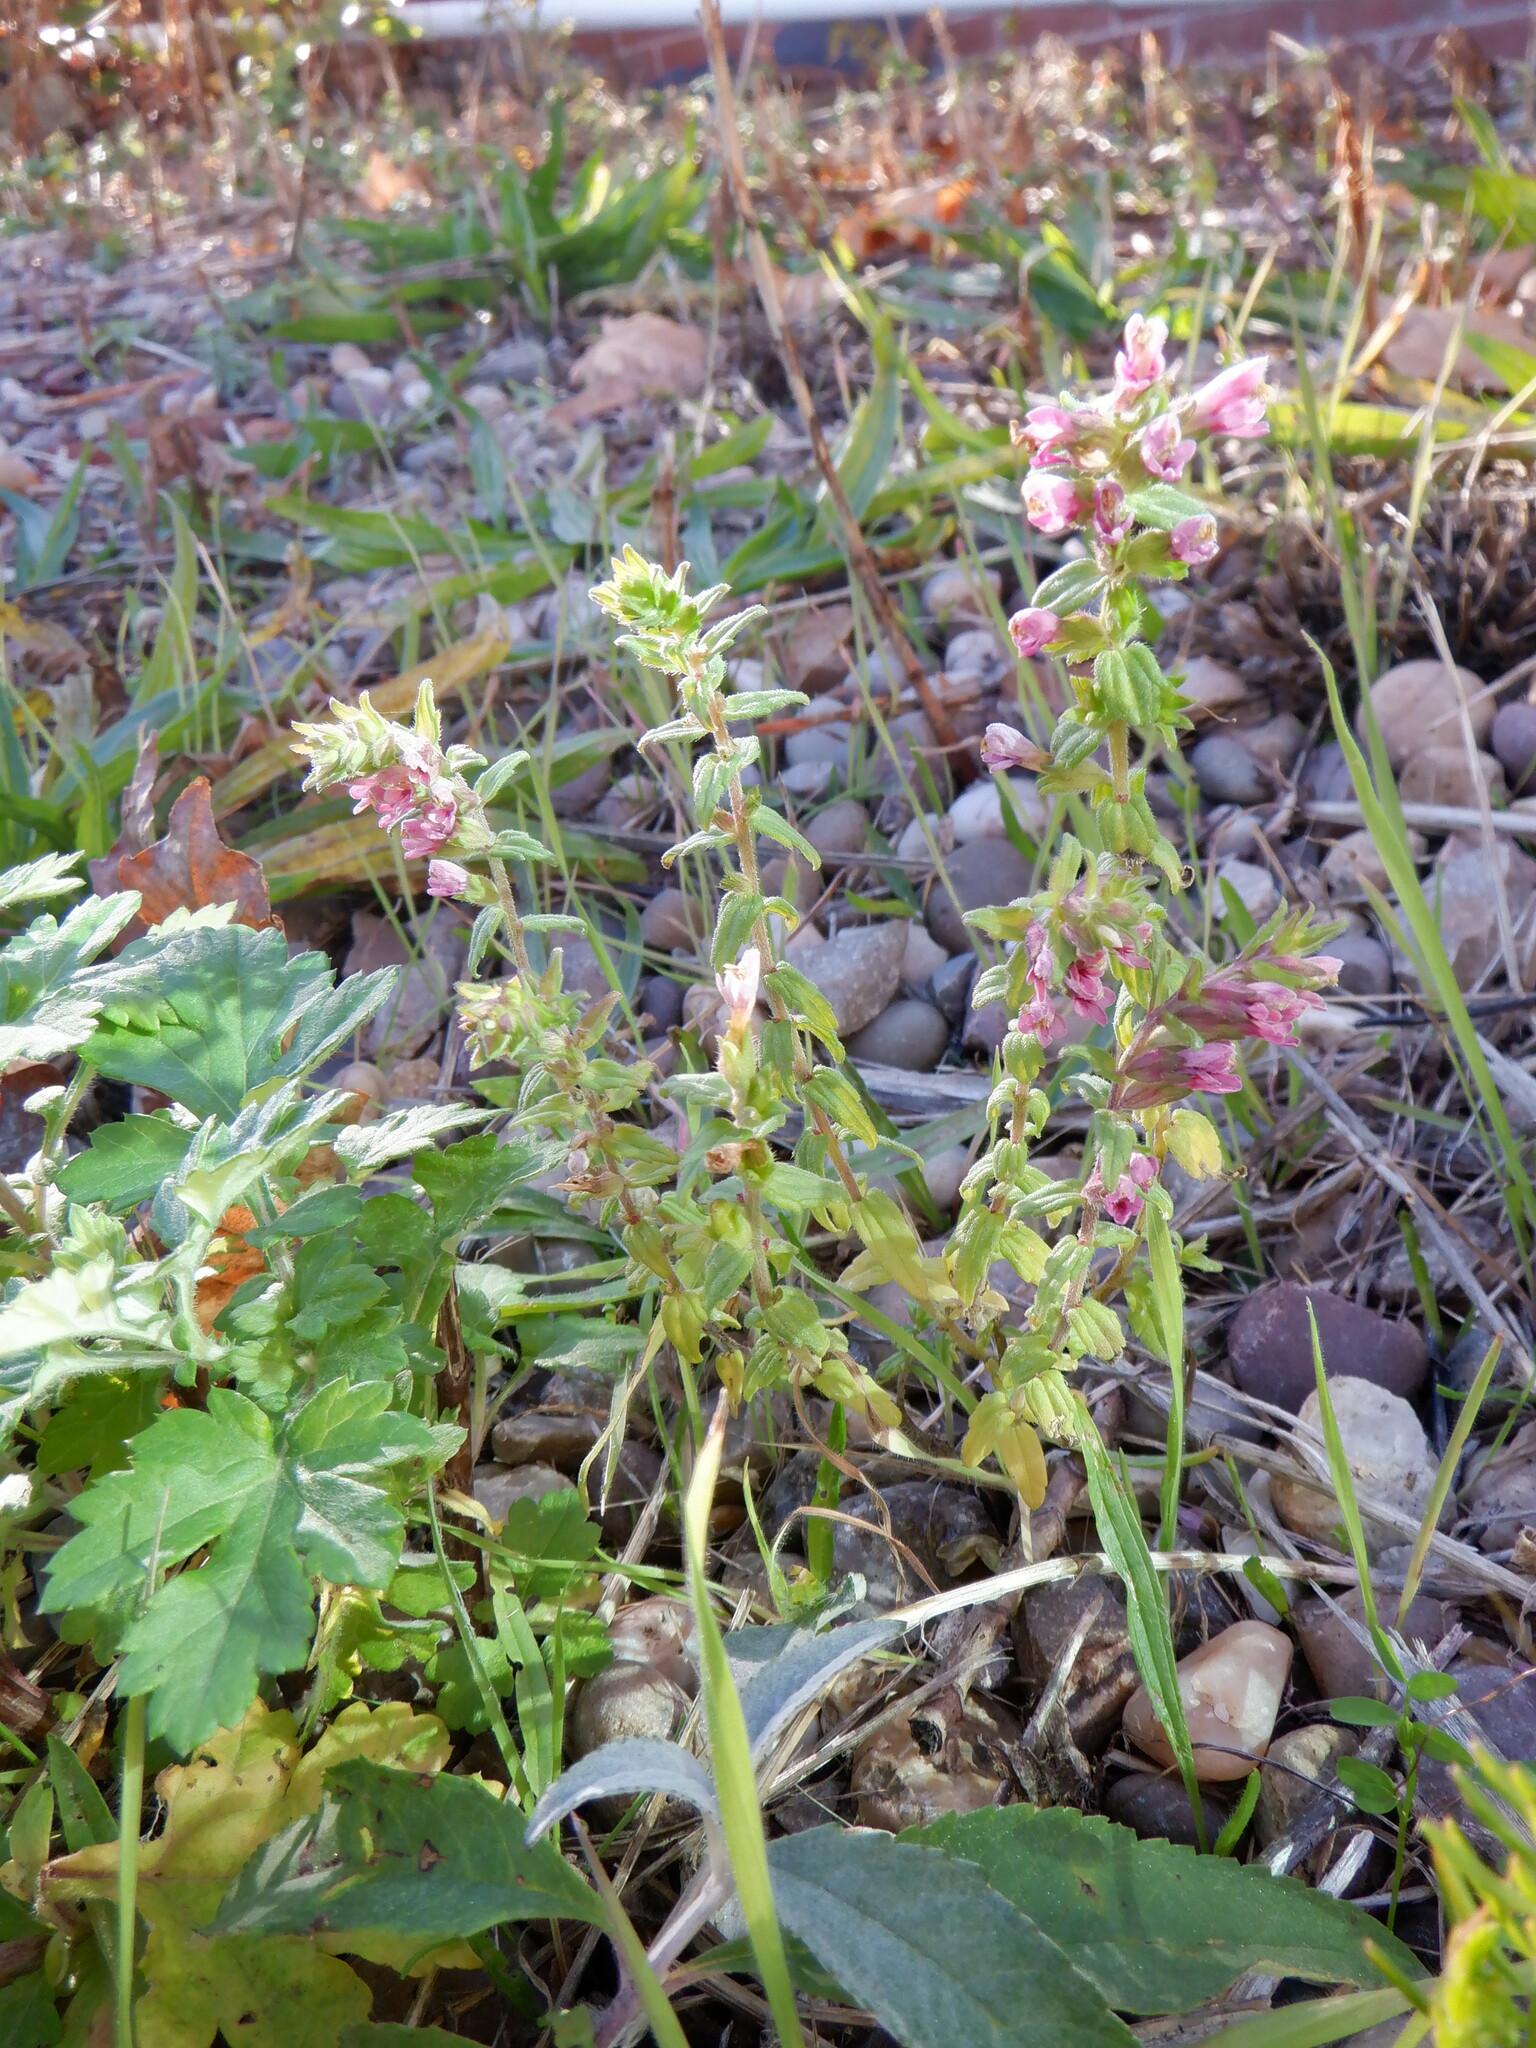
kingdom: Plantae
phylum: Tracheophyta
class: Magnoliopsida
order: Lamiales
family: Orobanchaceae
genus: Odontites
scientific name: Odontites vernus
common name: Red bartsia
